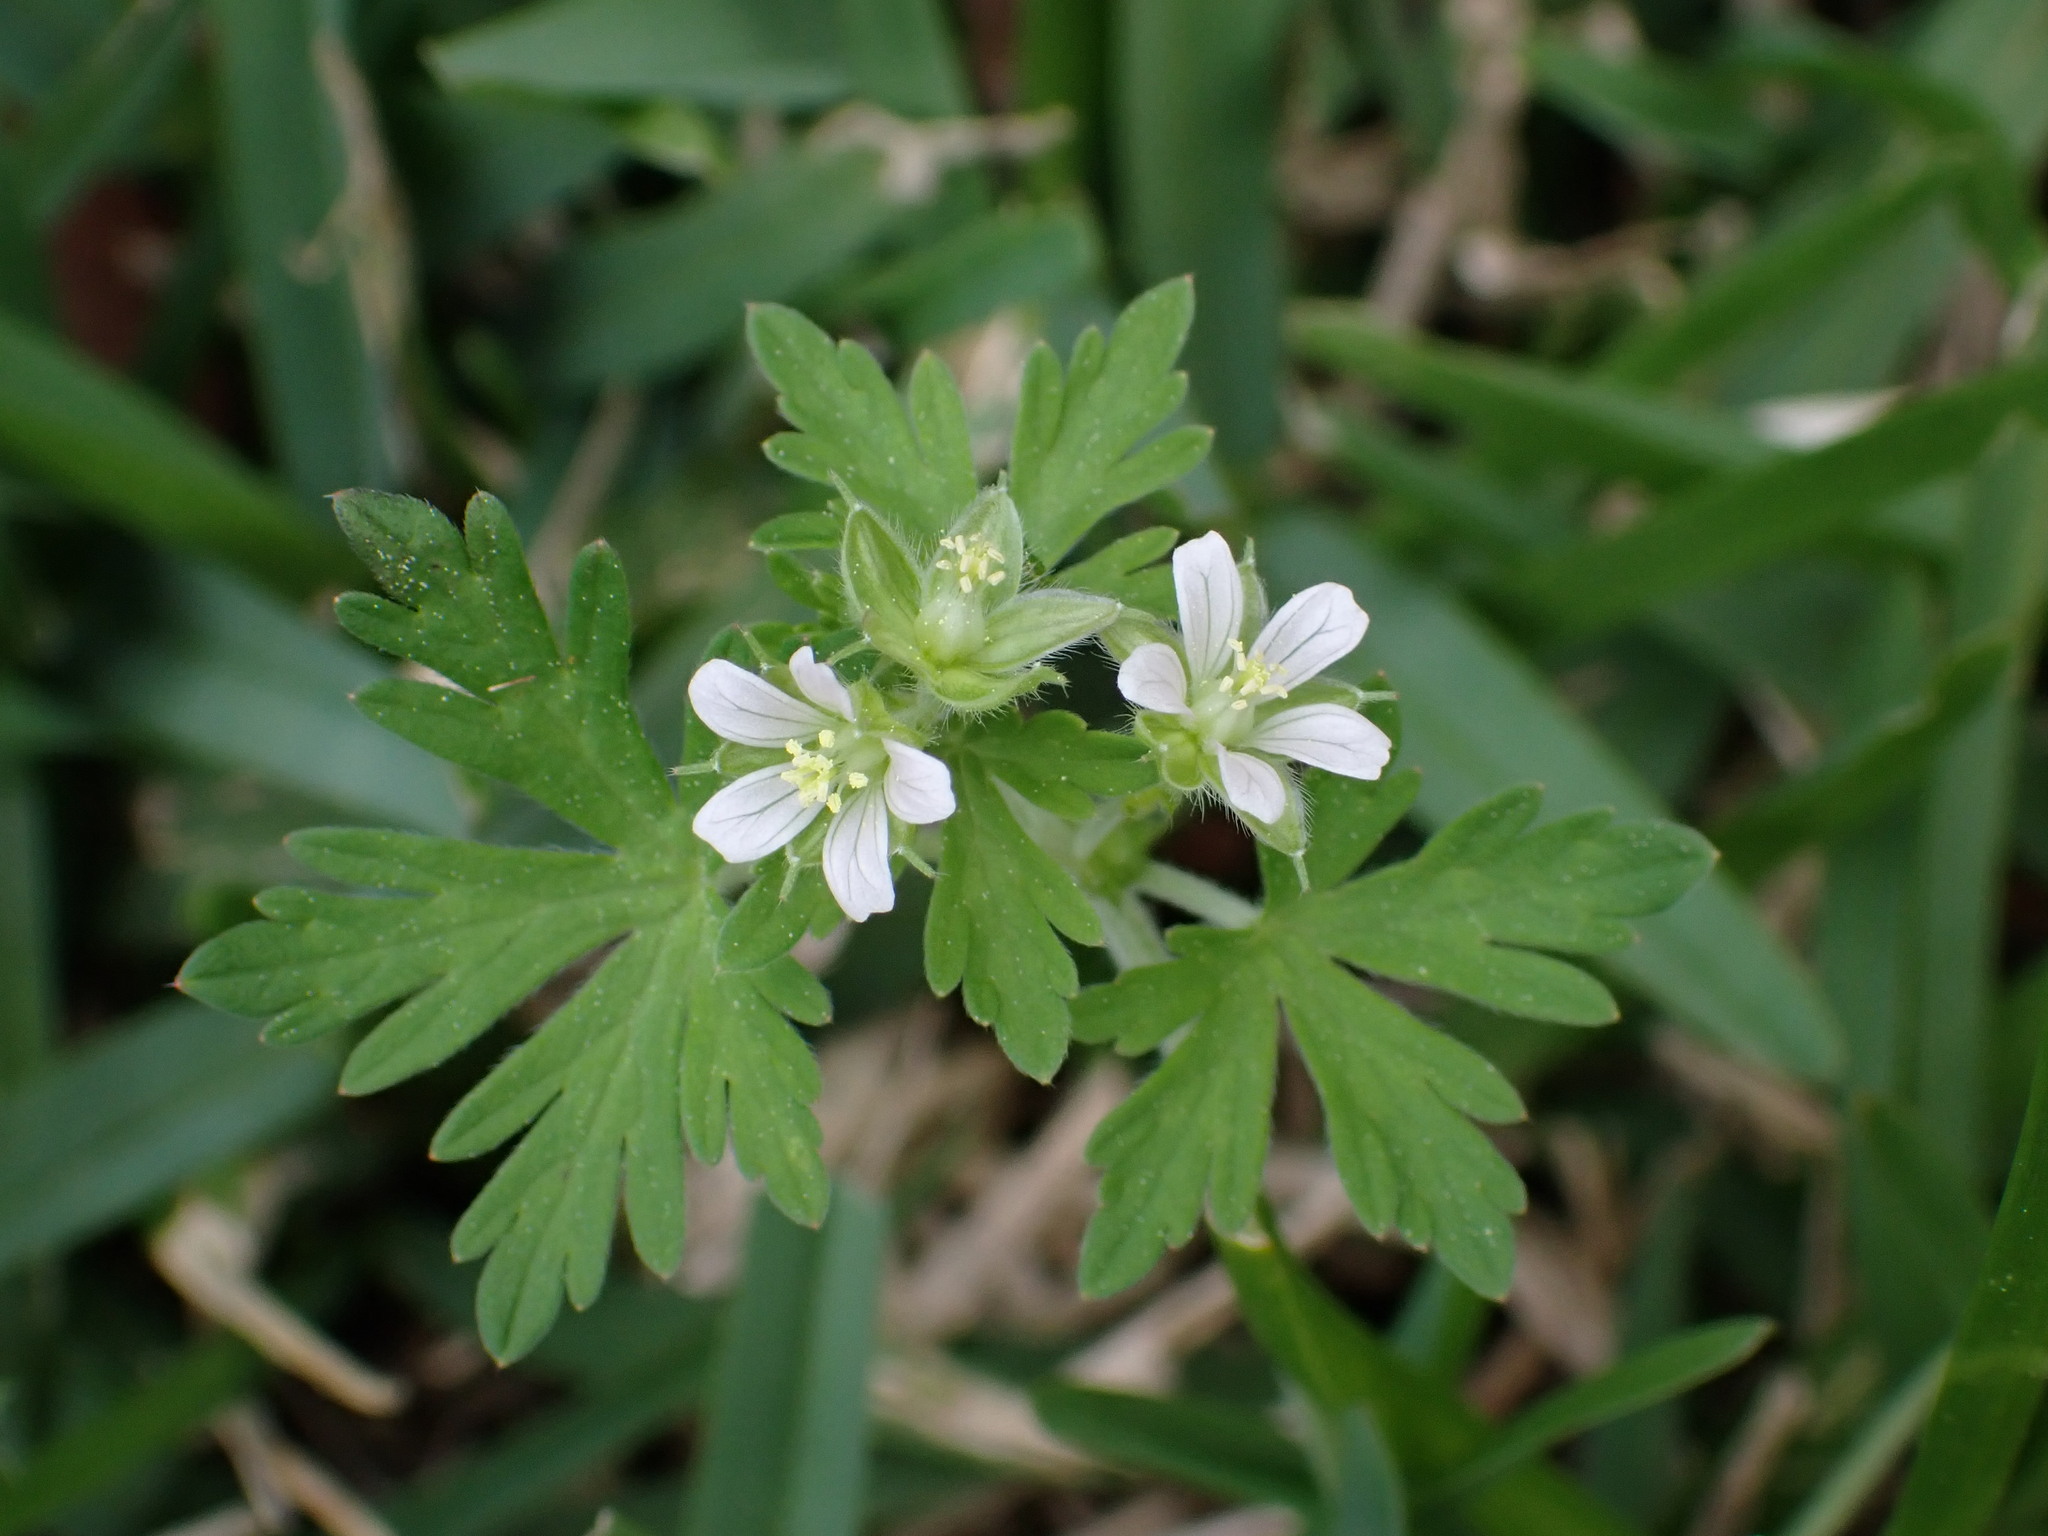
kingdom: Plantae
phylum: Tracheophyta
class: Magnoliopsida
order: Geraniales
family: Geraniaceae
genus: Geranium
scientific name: Geranium carolinianum
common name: Carolina crane's-bill
